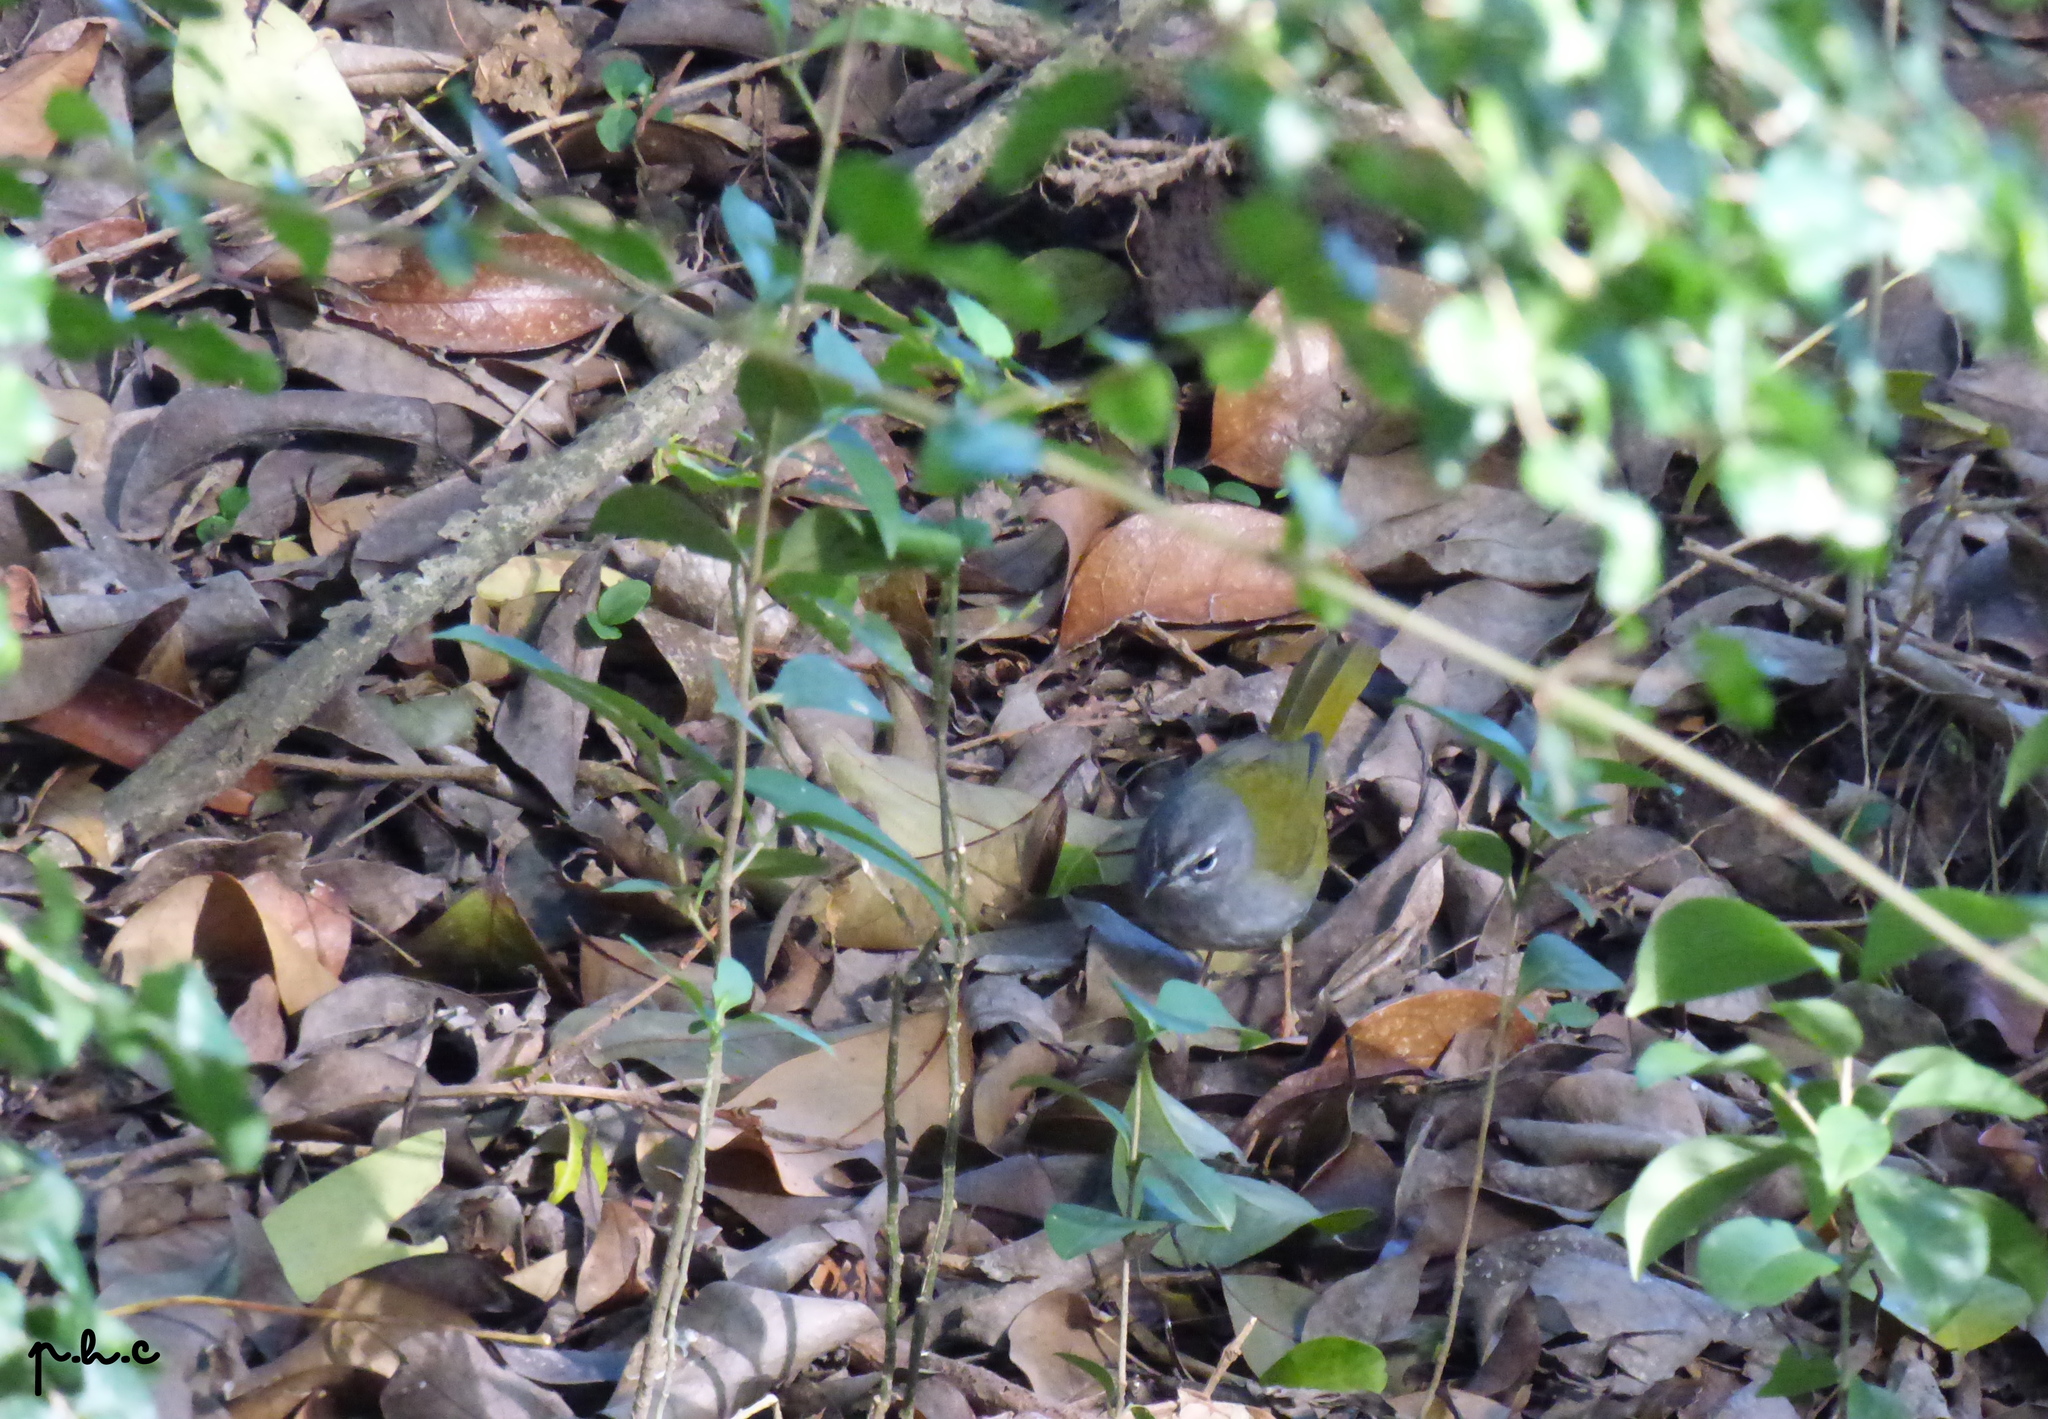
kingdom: Animalia
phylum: Chordata
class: Aves
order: Passeriformes
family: Parulidae
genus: Myiothlypis
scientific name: Myiothlypis leucoblephara
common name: White-rimmed warbler
